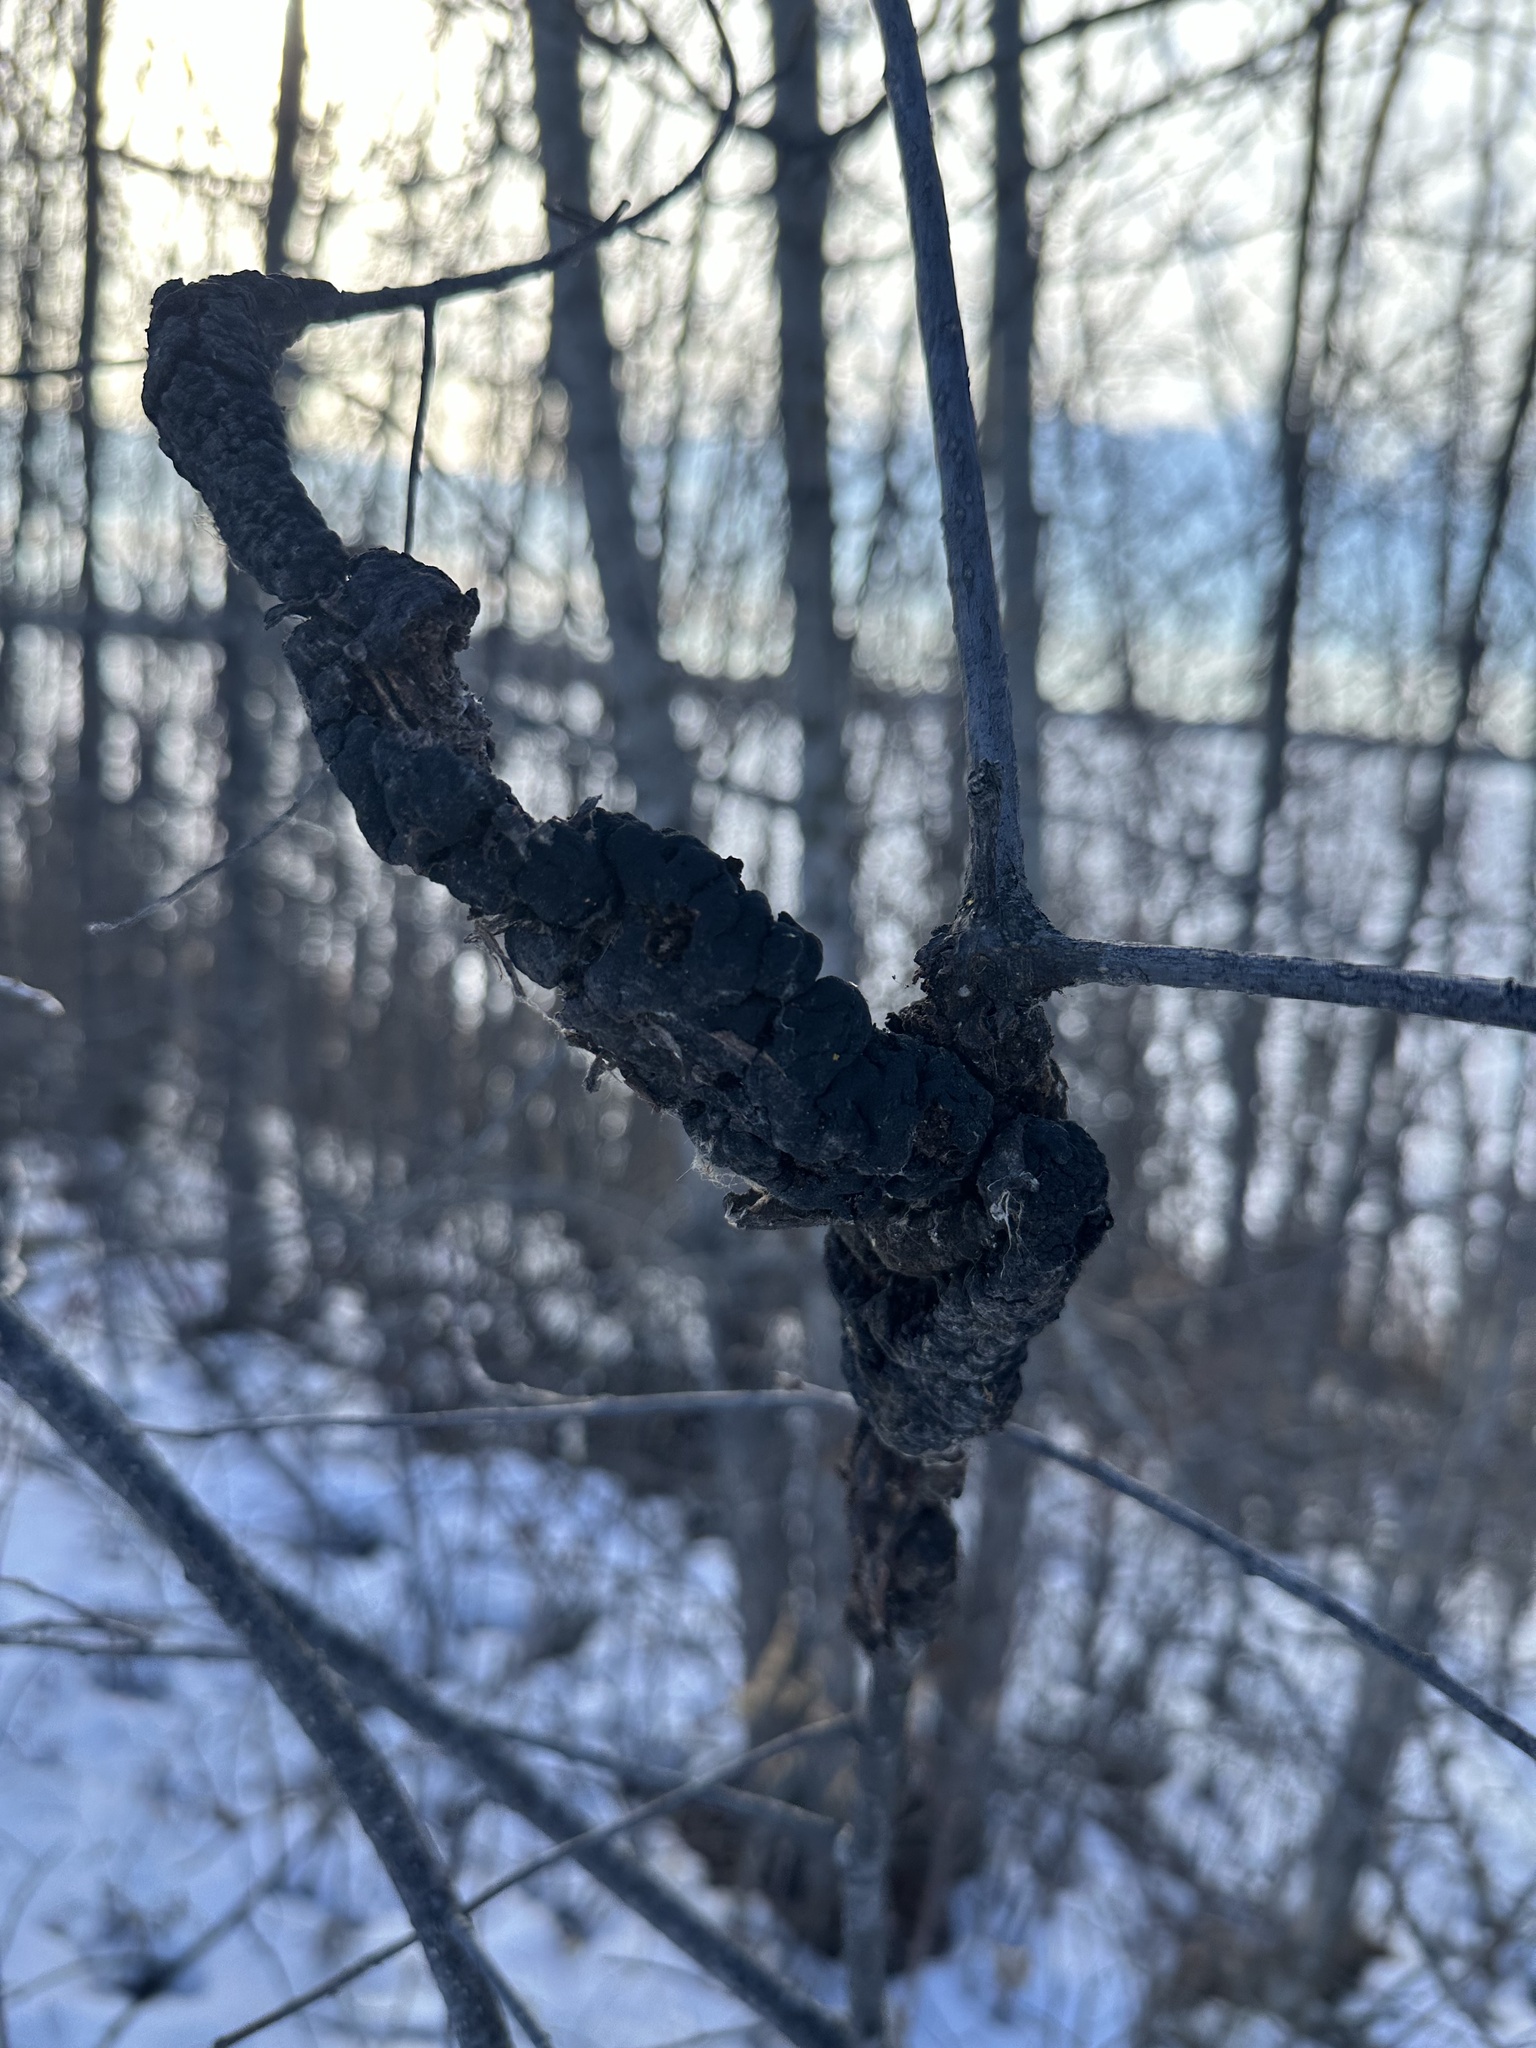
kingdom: Fungi
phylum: Ascomycota
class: Dothideomycetes
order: Venturiales
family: Venturiaceae
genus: Apiosporina
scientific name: Apiosporina morbosa
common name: Black knot
